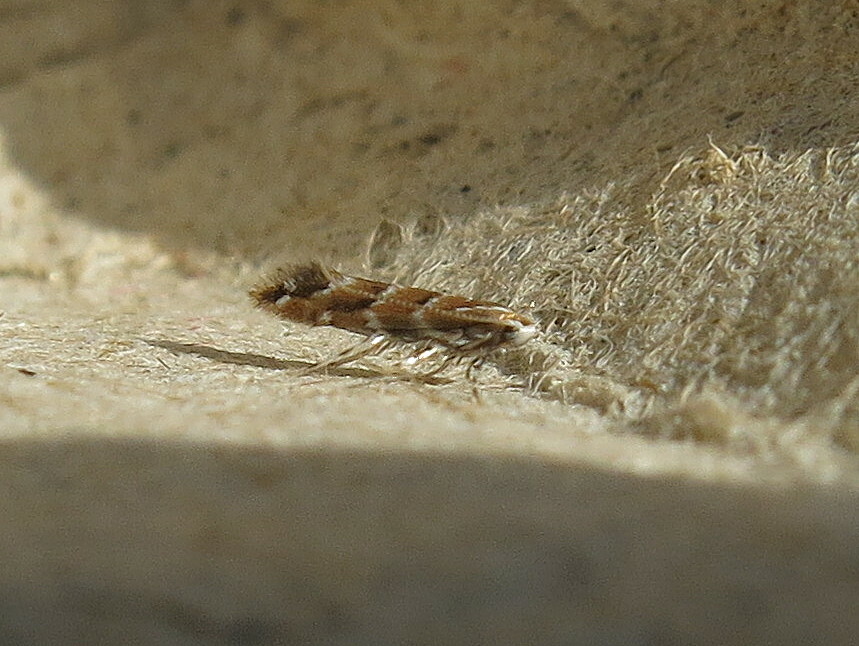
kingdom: Animalia
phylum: Arthropoda
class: Insecta
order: Lepidoptera
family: Gracillariidae
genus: Cameraria
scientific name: Cameraria ohridella
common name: Horse-chestnut leaf-miner
